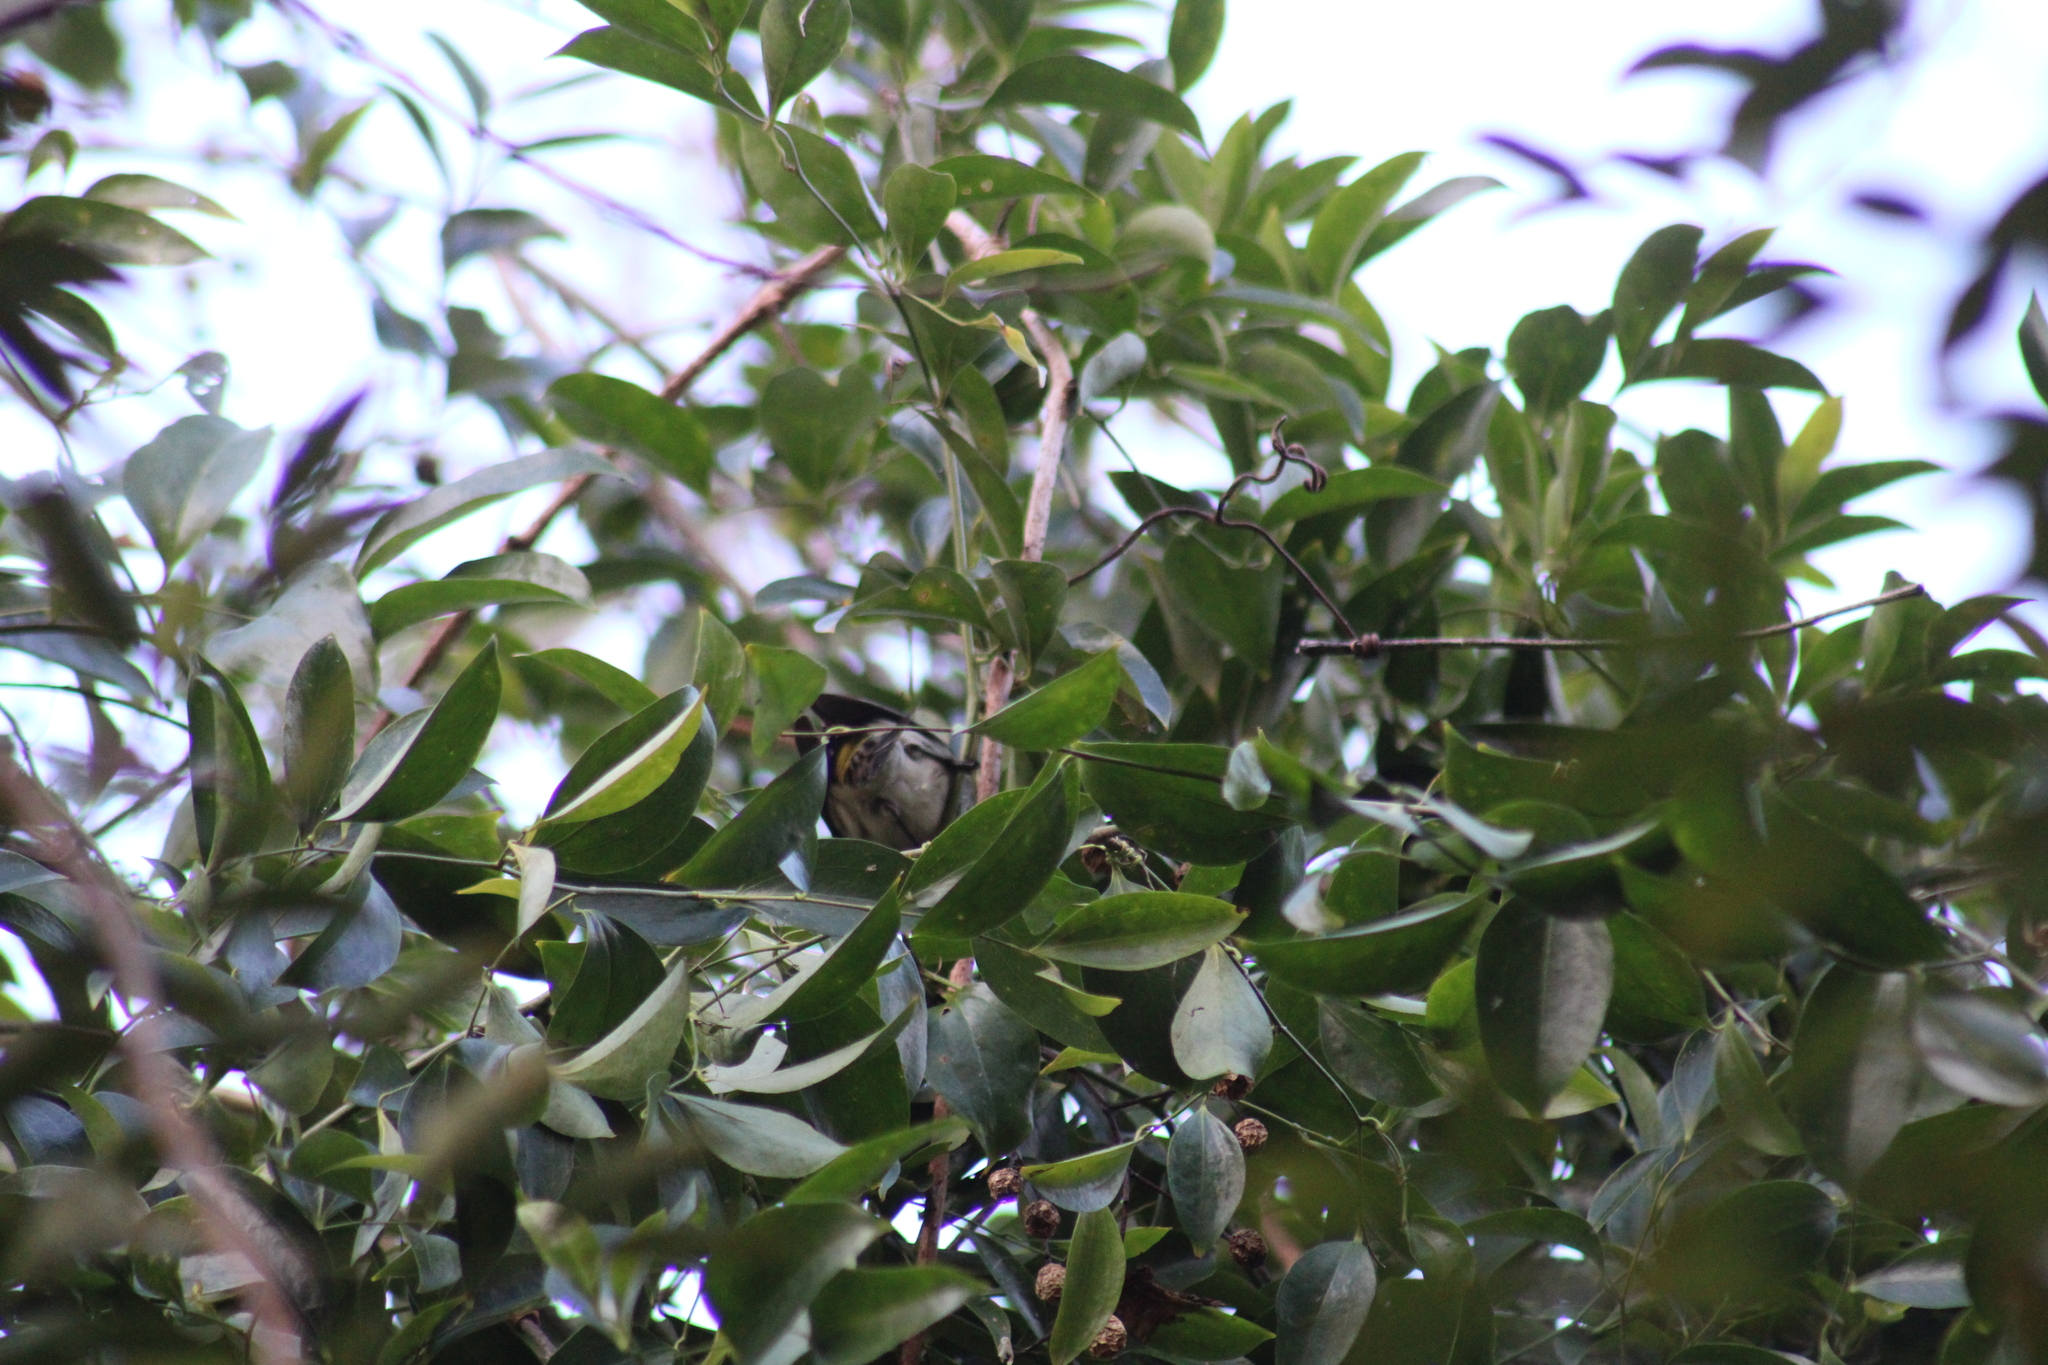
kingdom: Animalia
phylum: Chordata
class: Aves
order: Passeriformes
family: Parulidae
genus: Setophaga
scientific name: Setophaga coronata
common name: Myrtle warbler
